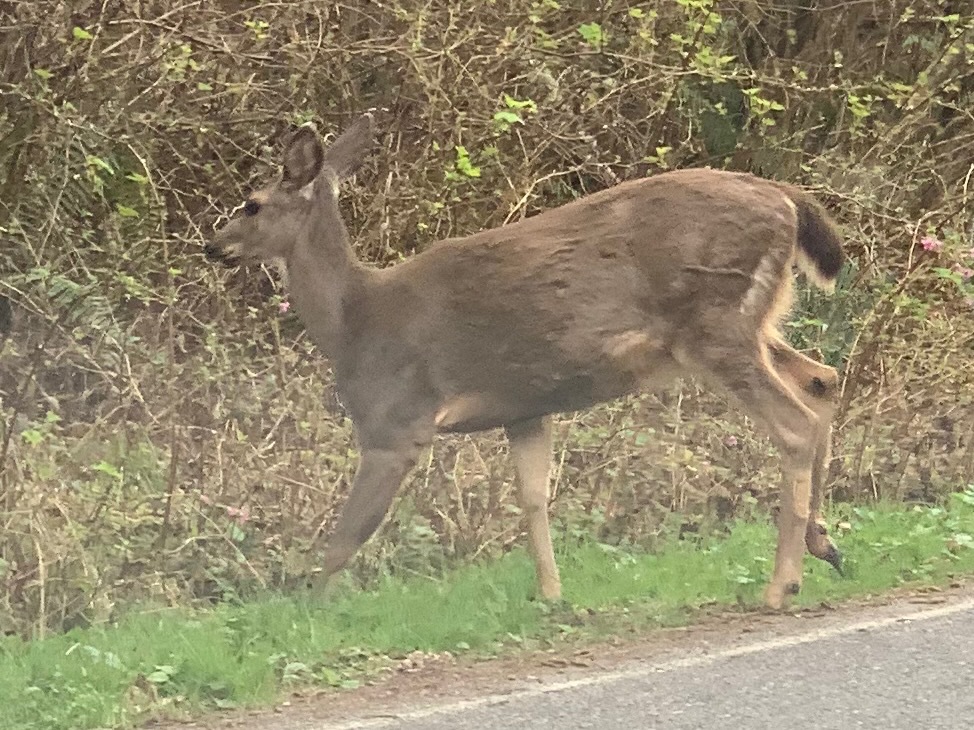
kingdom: Animalia
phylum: Chordata
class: Mammalia
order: Artiodactyla
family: Cervidae
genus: Odocoileus
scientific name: Odocoileus hemionus
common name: Mule deer
